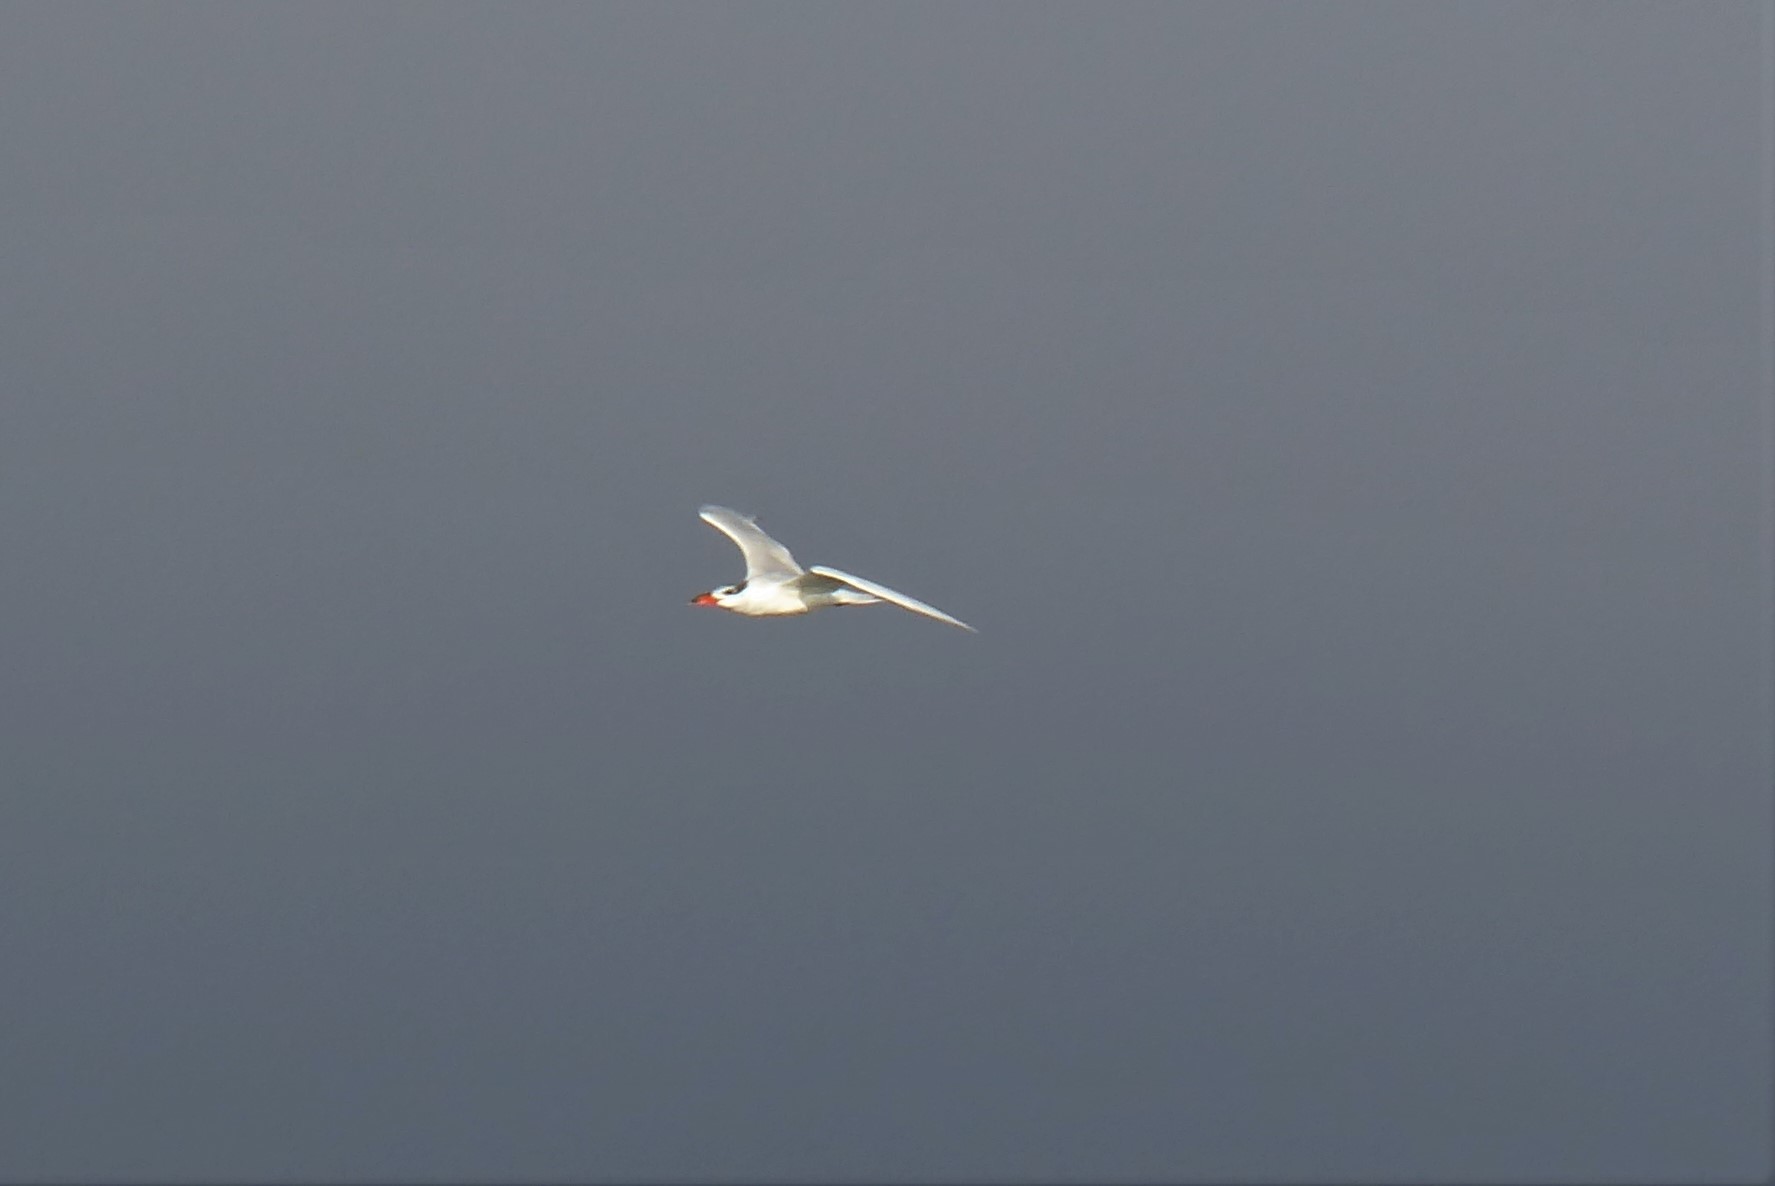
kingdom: Animalia
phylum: Chordata
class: Aves
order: Charadriiformes
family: Laridae
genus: Hydroprogne
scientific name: Hydroprogne caspia
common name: Caspian tern
